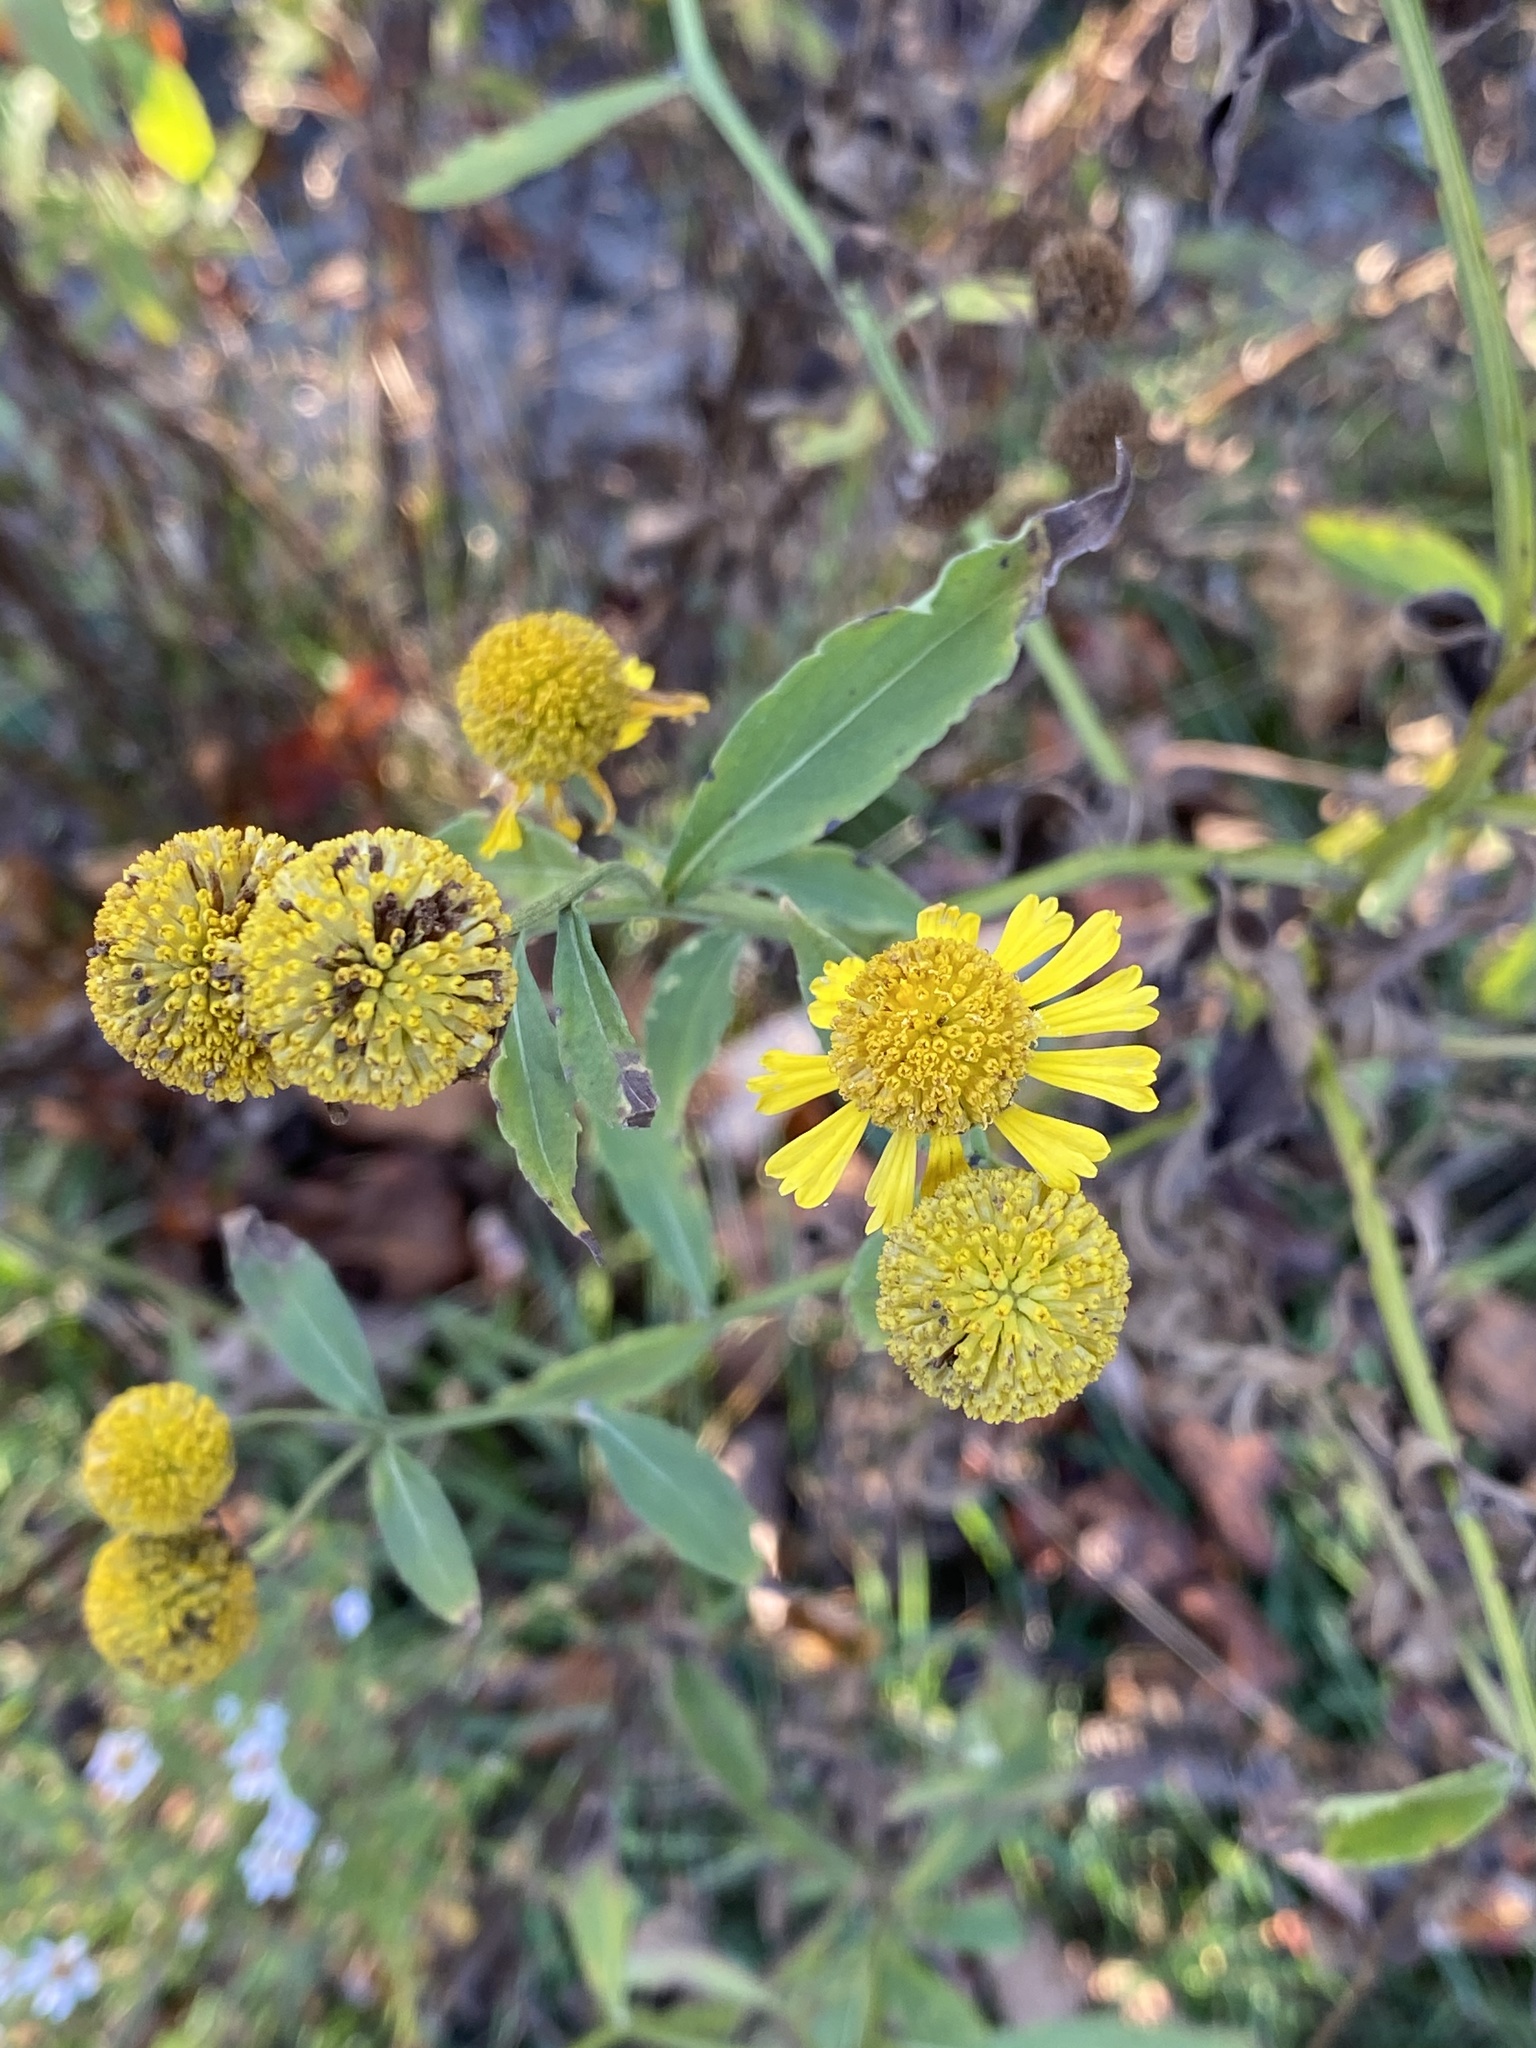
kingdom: Plantae
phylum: Tracheophyta
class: Magnoliopsida
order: Asterales
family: Asteraceae
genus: Helenium
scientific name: Helenium autumnale
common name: Sneezeweed
